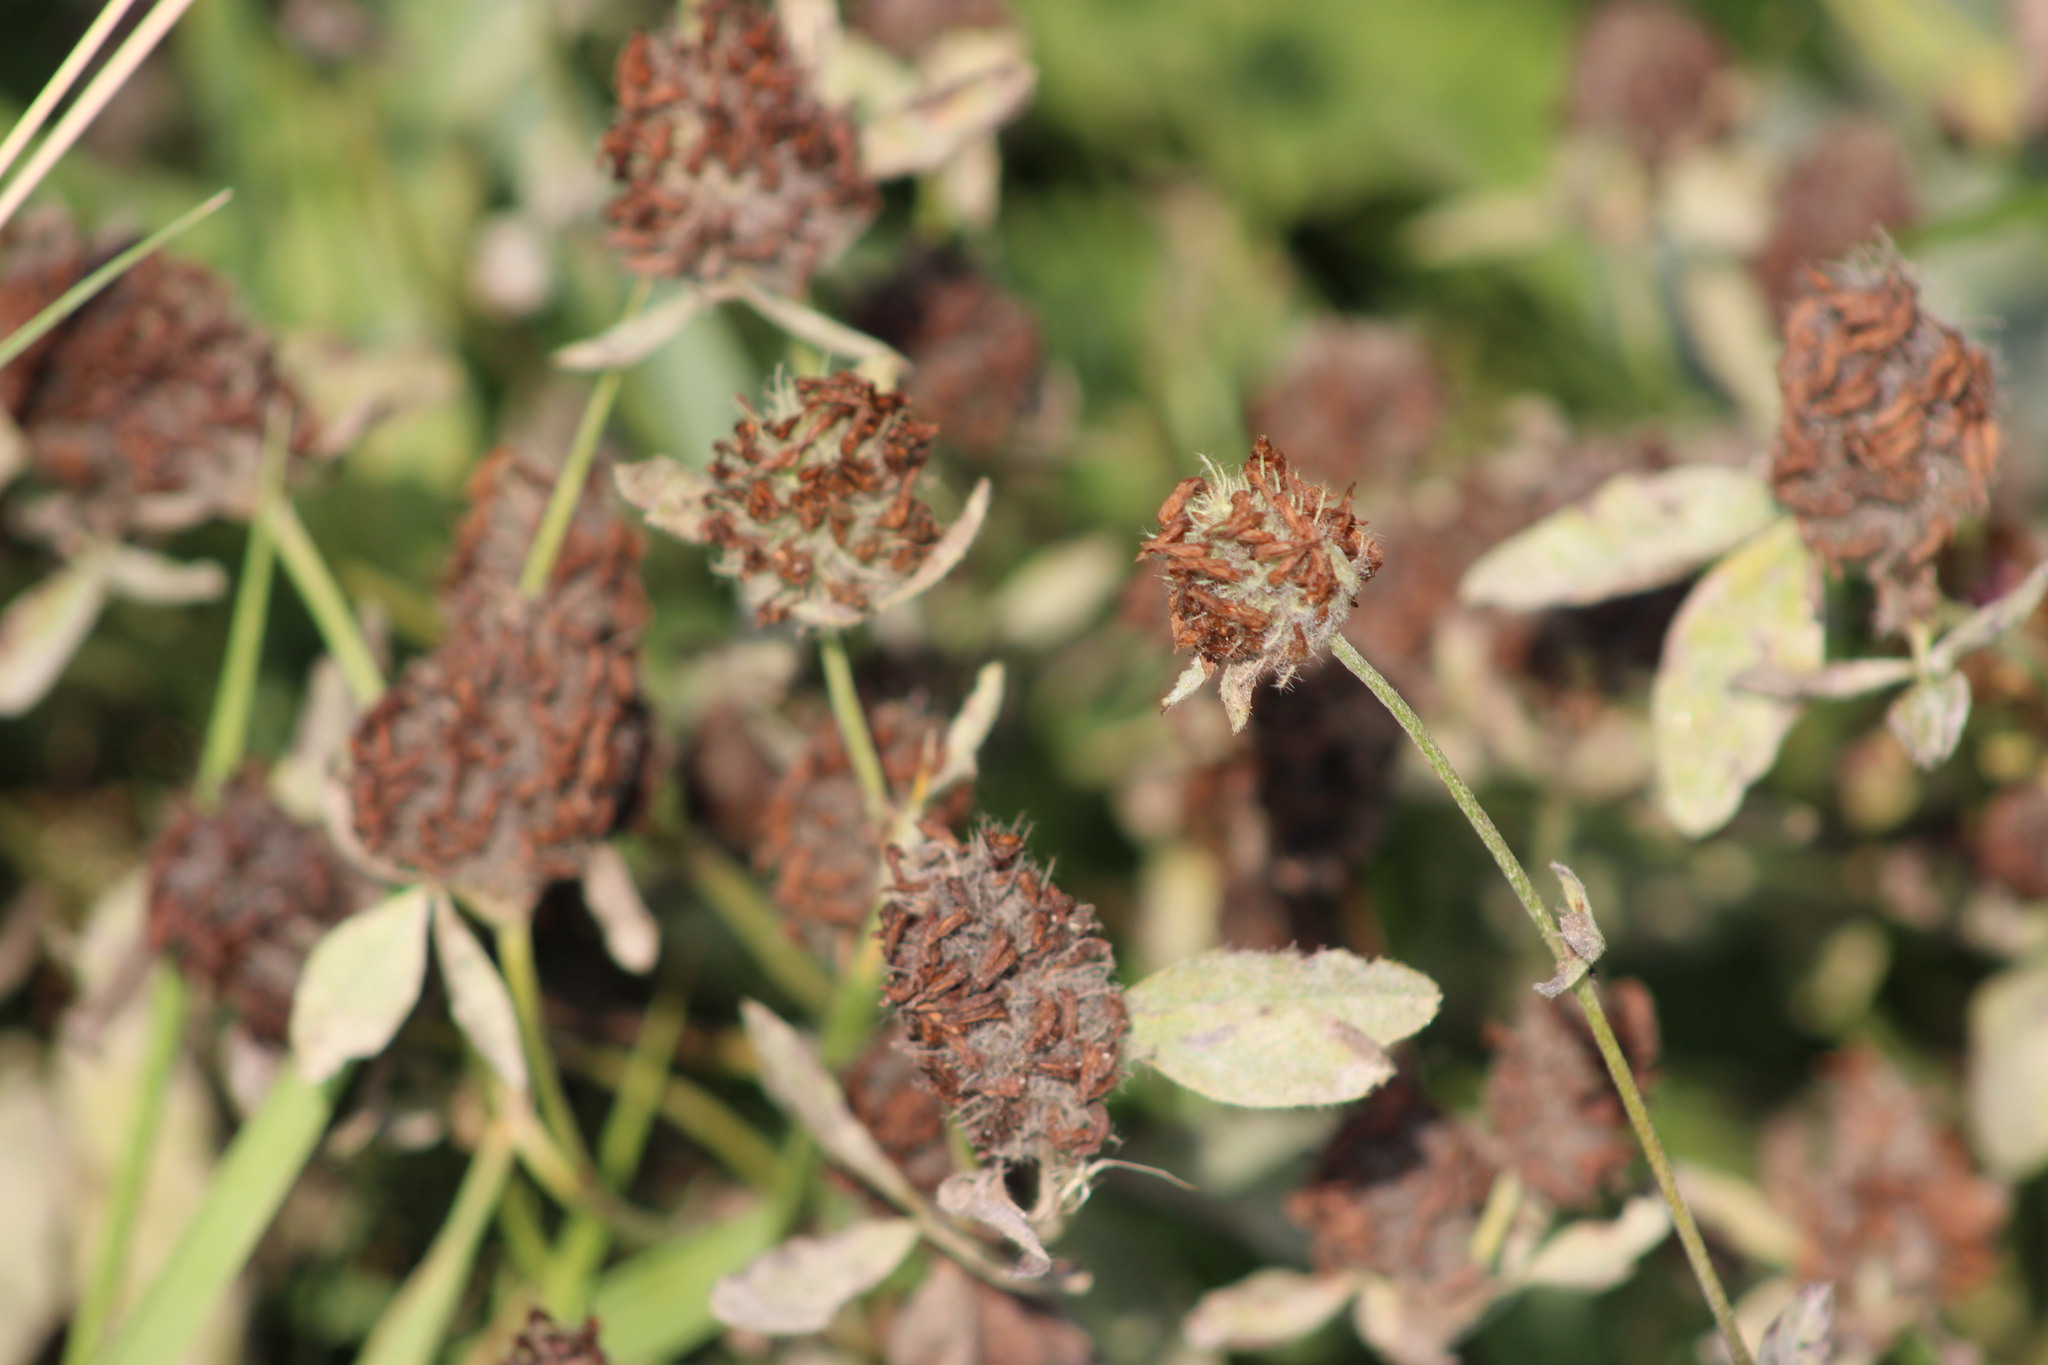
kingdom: Plantae
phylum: Tracheophyta
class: Magnoliopsida
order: Fabales
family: Fabaceae
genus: Trifolium
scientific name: Trifolium pratense
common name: Red clover
